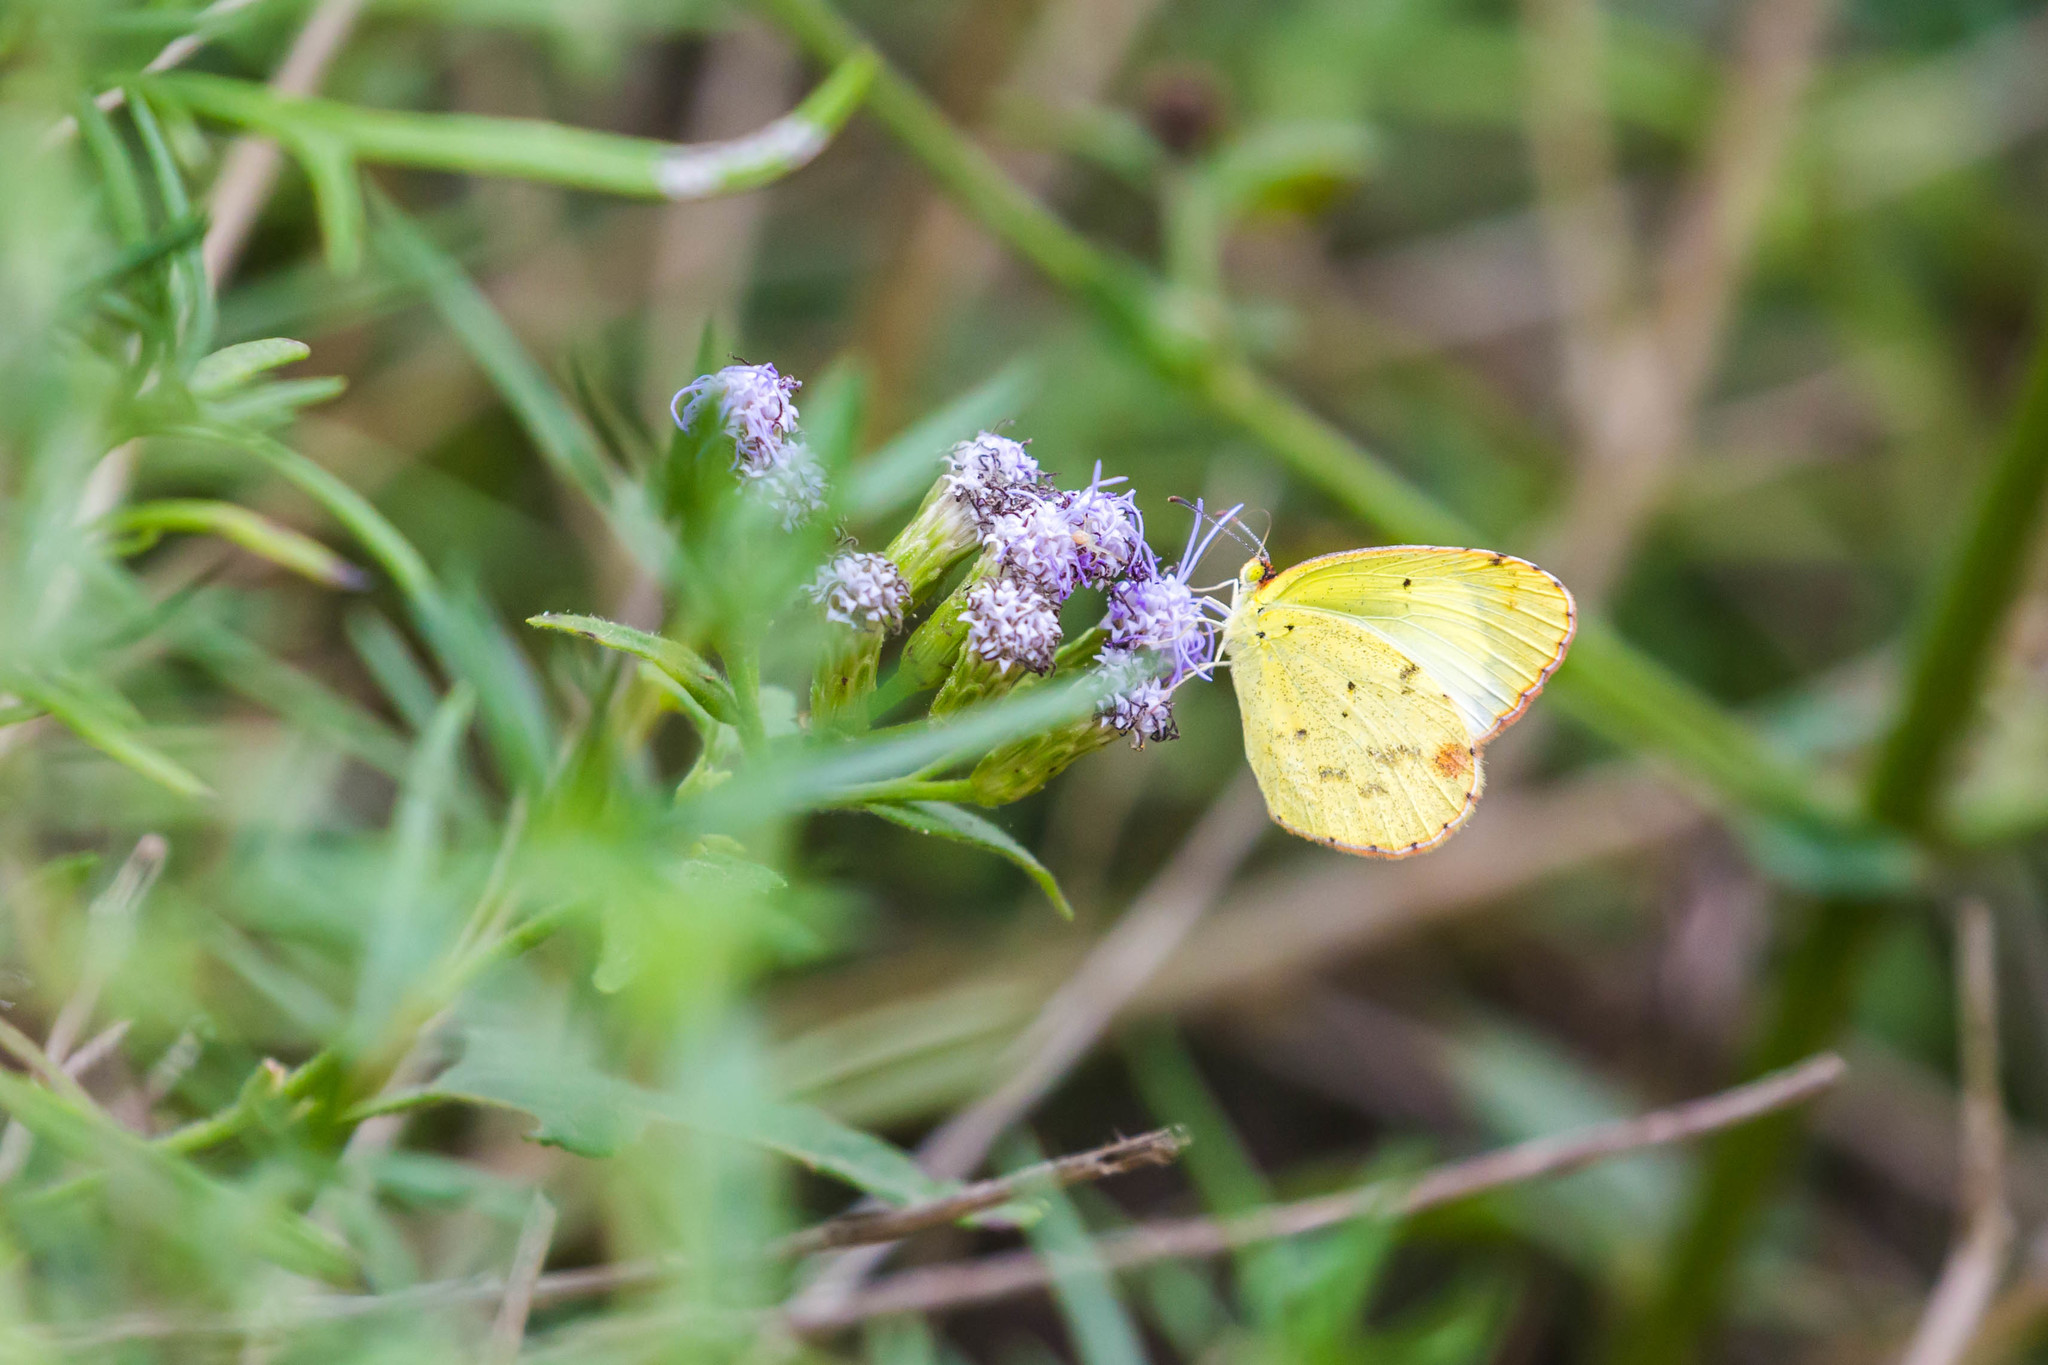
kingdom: Animalia
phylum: Arthropoda
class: Insecta
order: Lepidoptera
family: Pieridae
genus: Pyrisitia
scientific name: Pyrisitia lisa
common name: Little yellow
